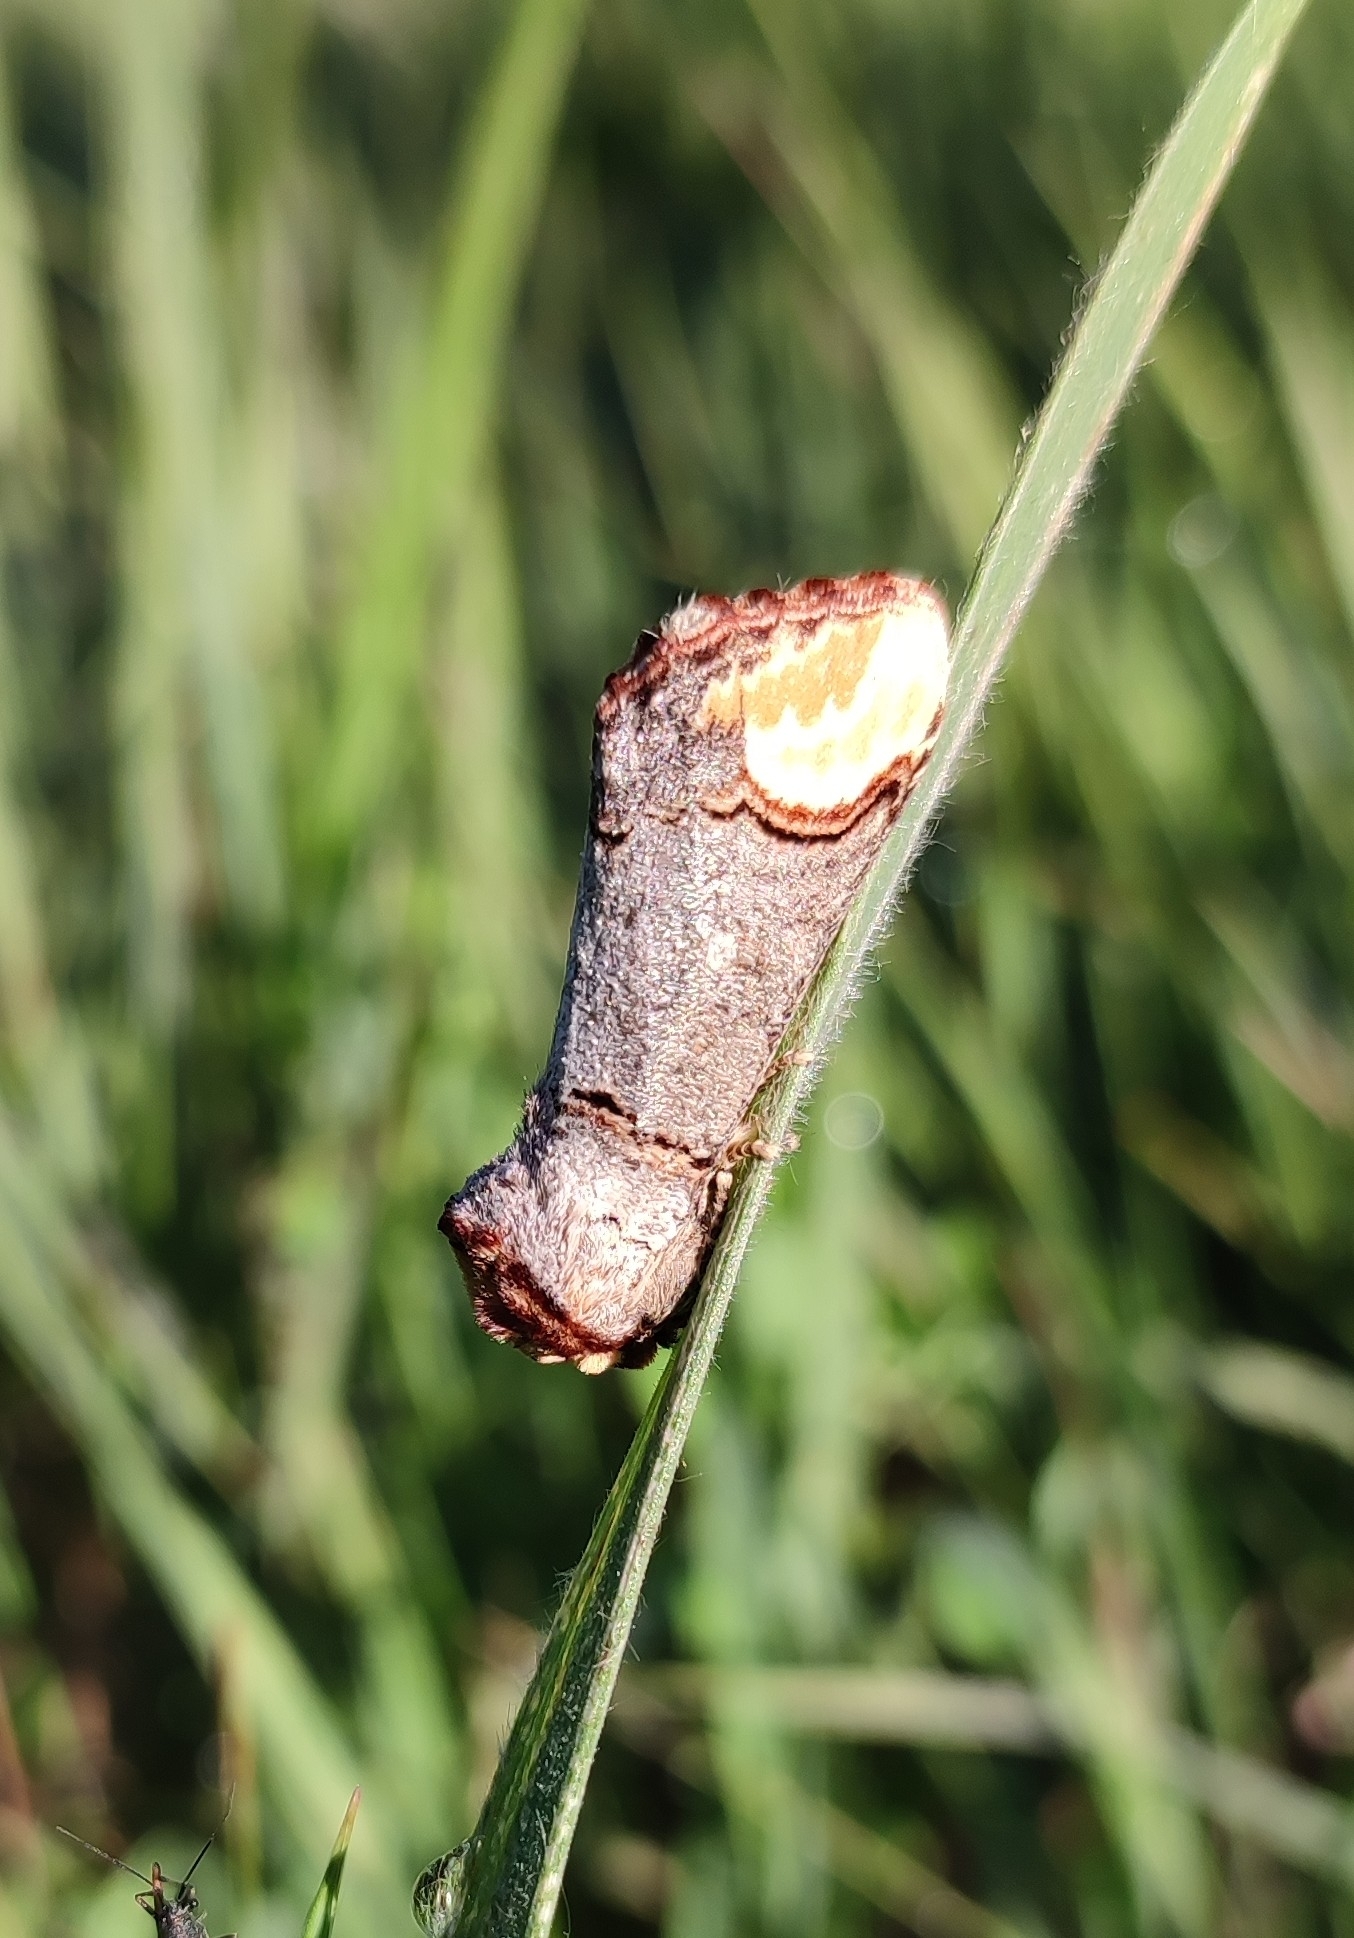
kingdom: Animalia
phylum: Arthropoda
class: Insecta
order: Lepidoptera
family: Notodontidae
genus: Phalera
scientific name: Phalera bucephala
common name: Buff-tip
